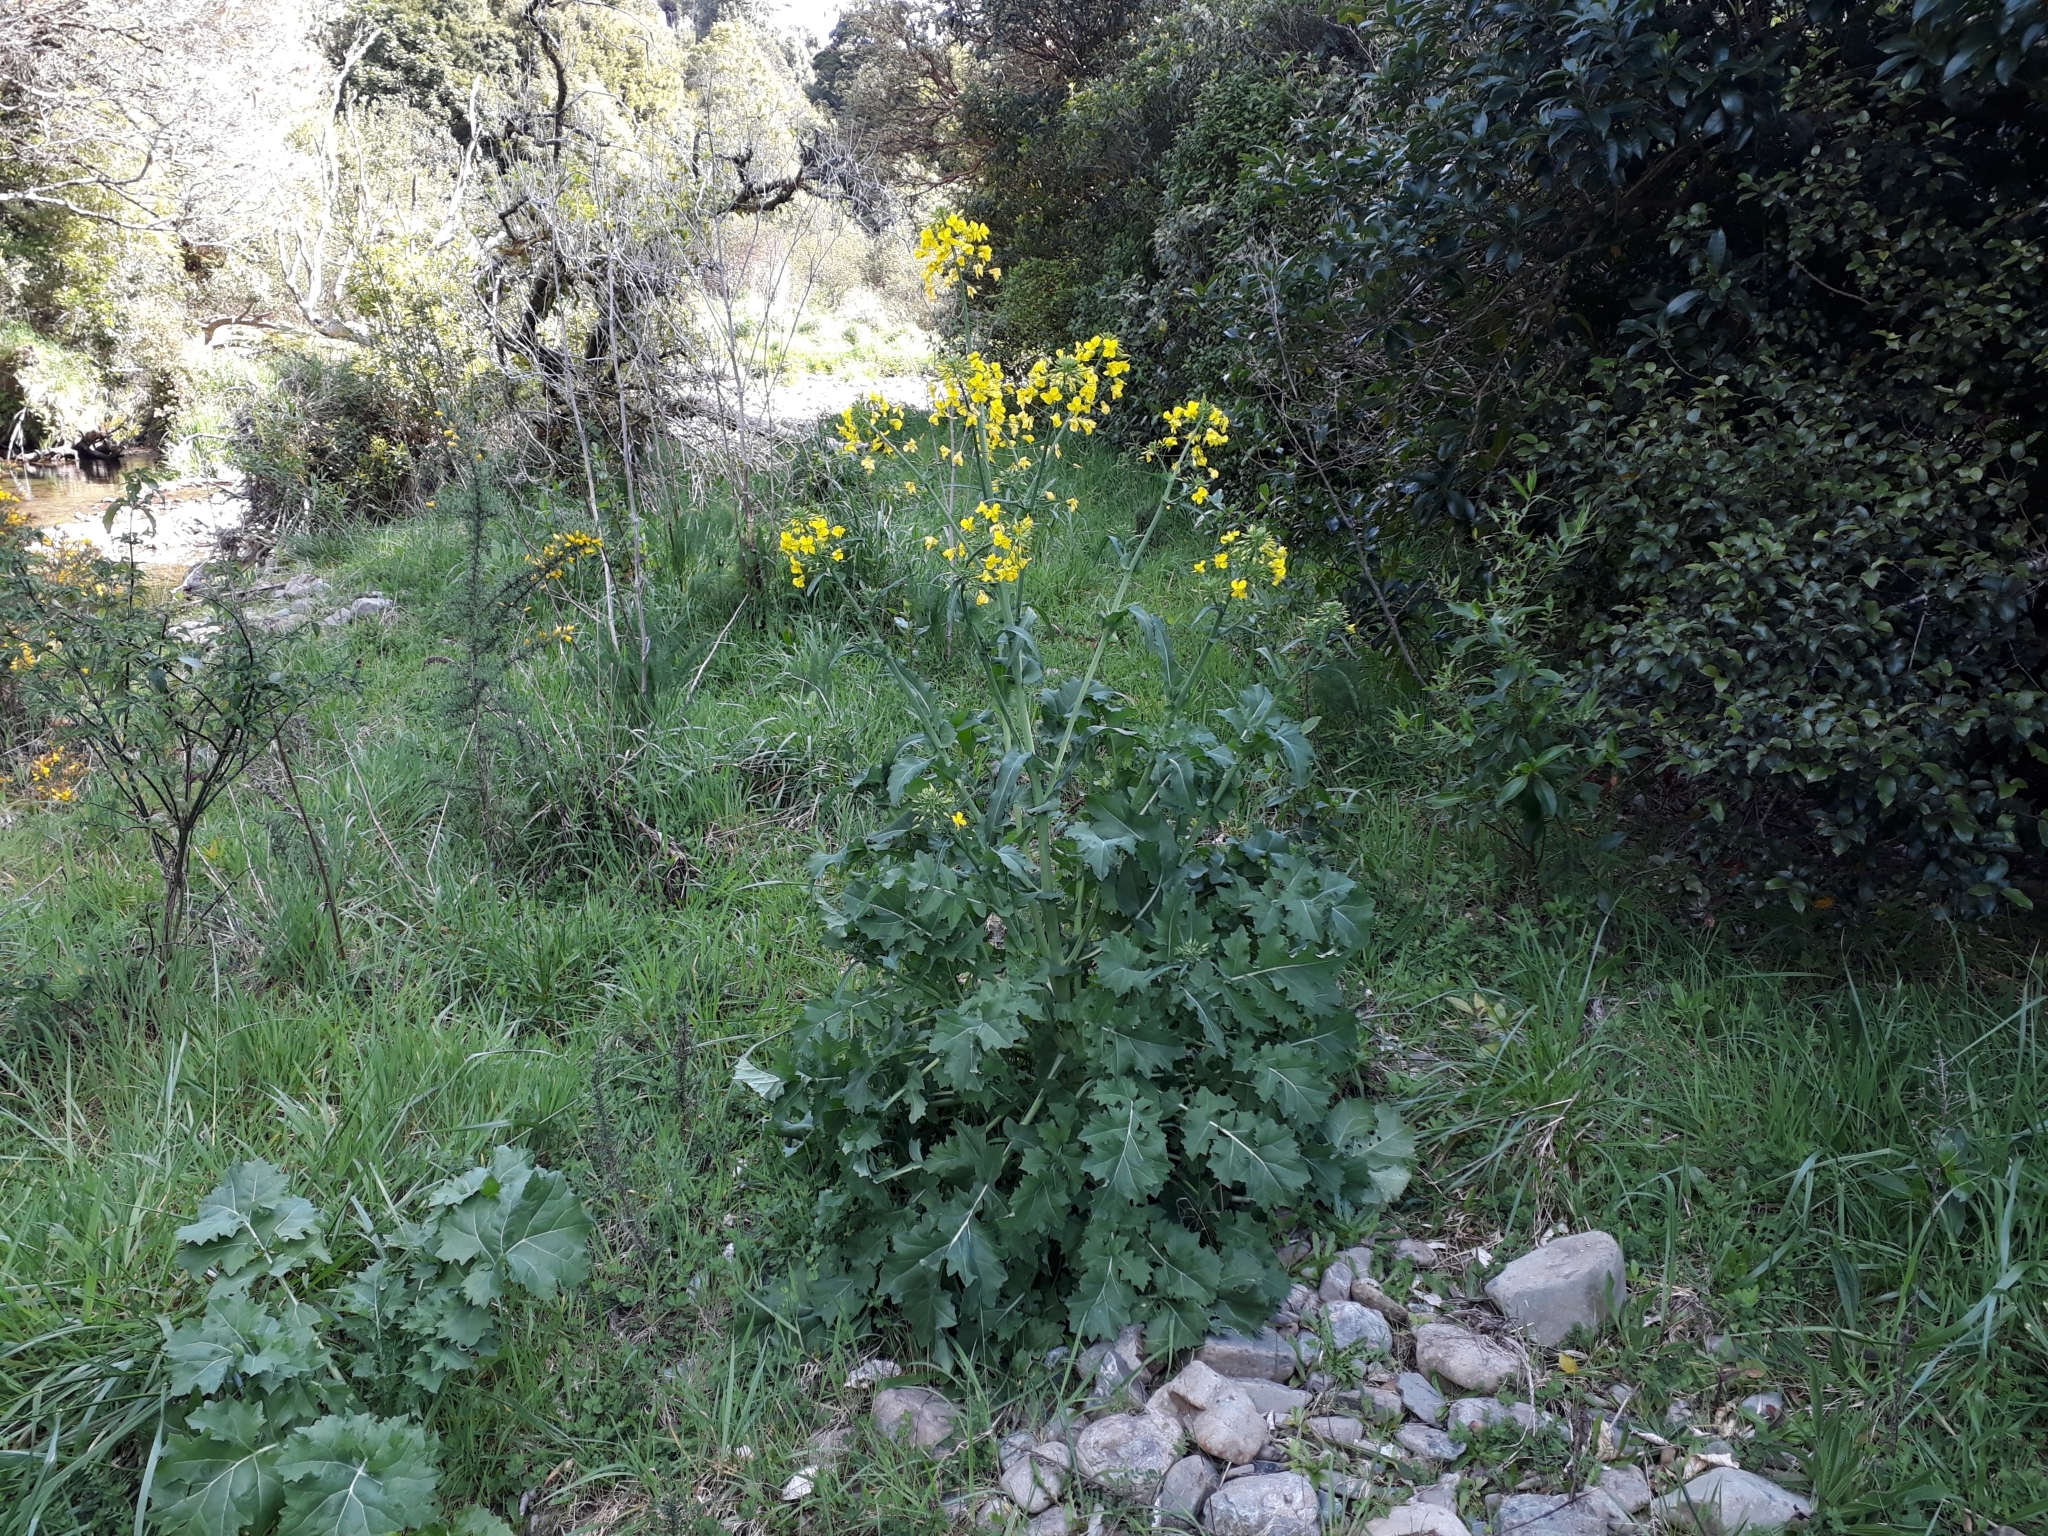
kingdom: Plantae
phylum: Tracheophyta
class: Magnoliopsida
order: Brassicales
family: Brassicaceae
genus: Brassica
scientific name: Brassica napus
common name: Rape
